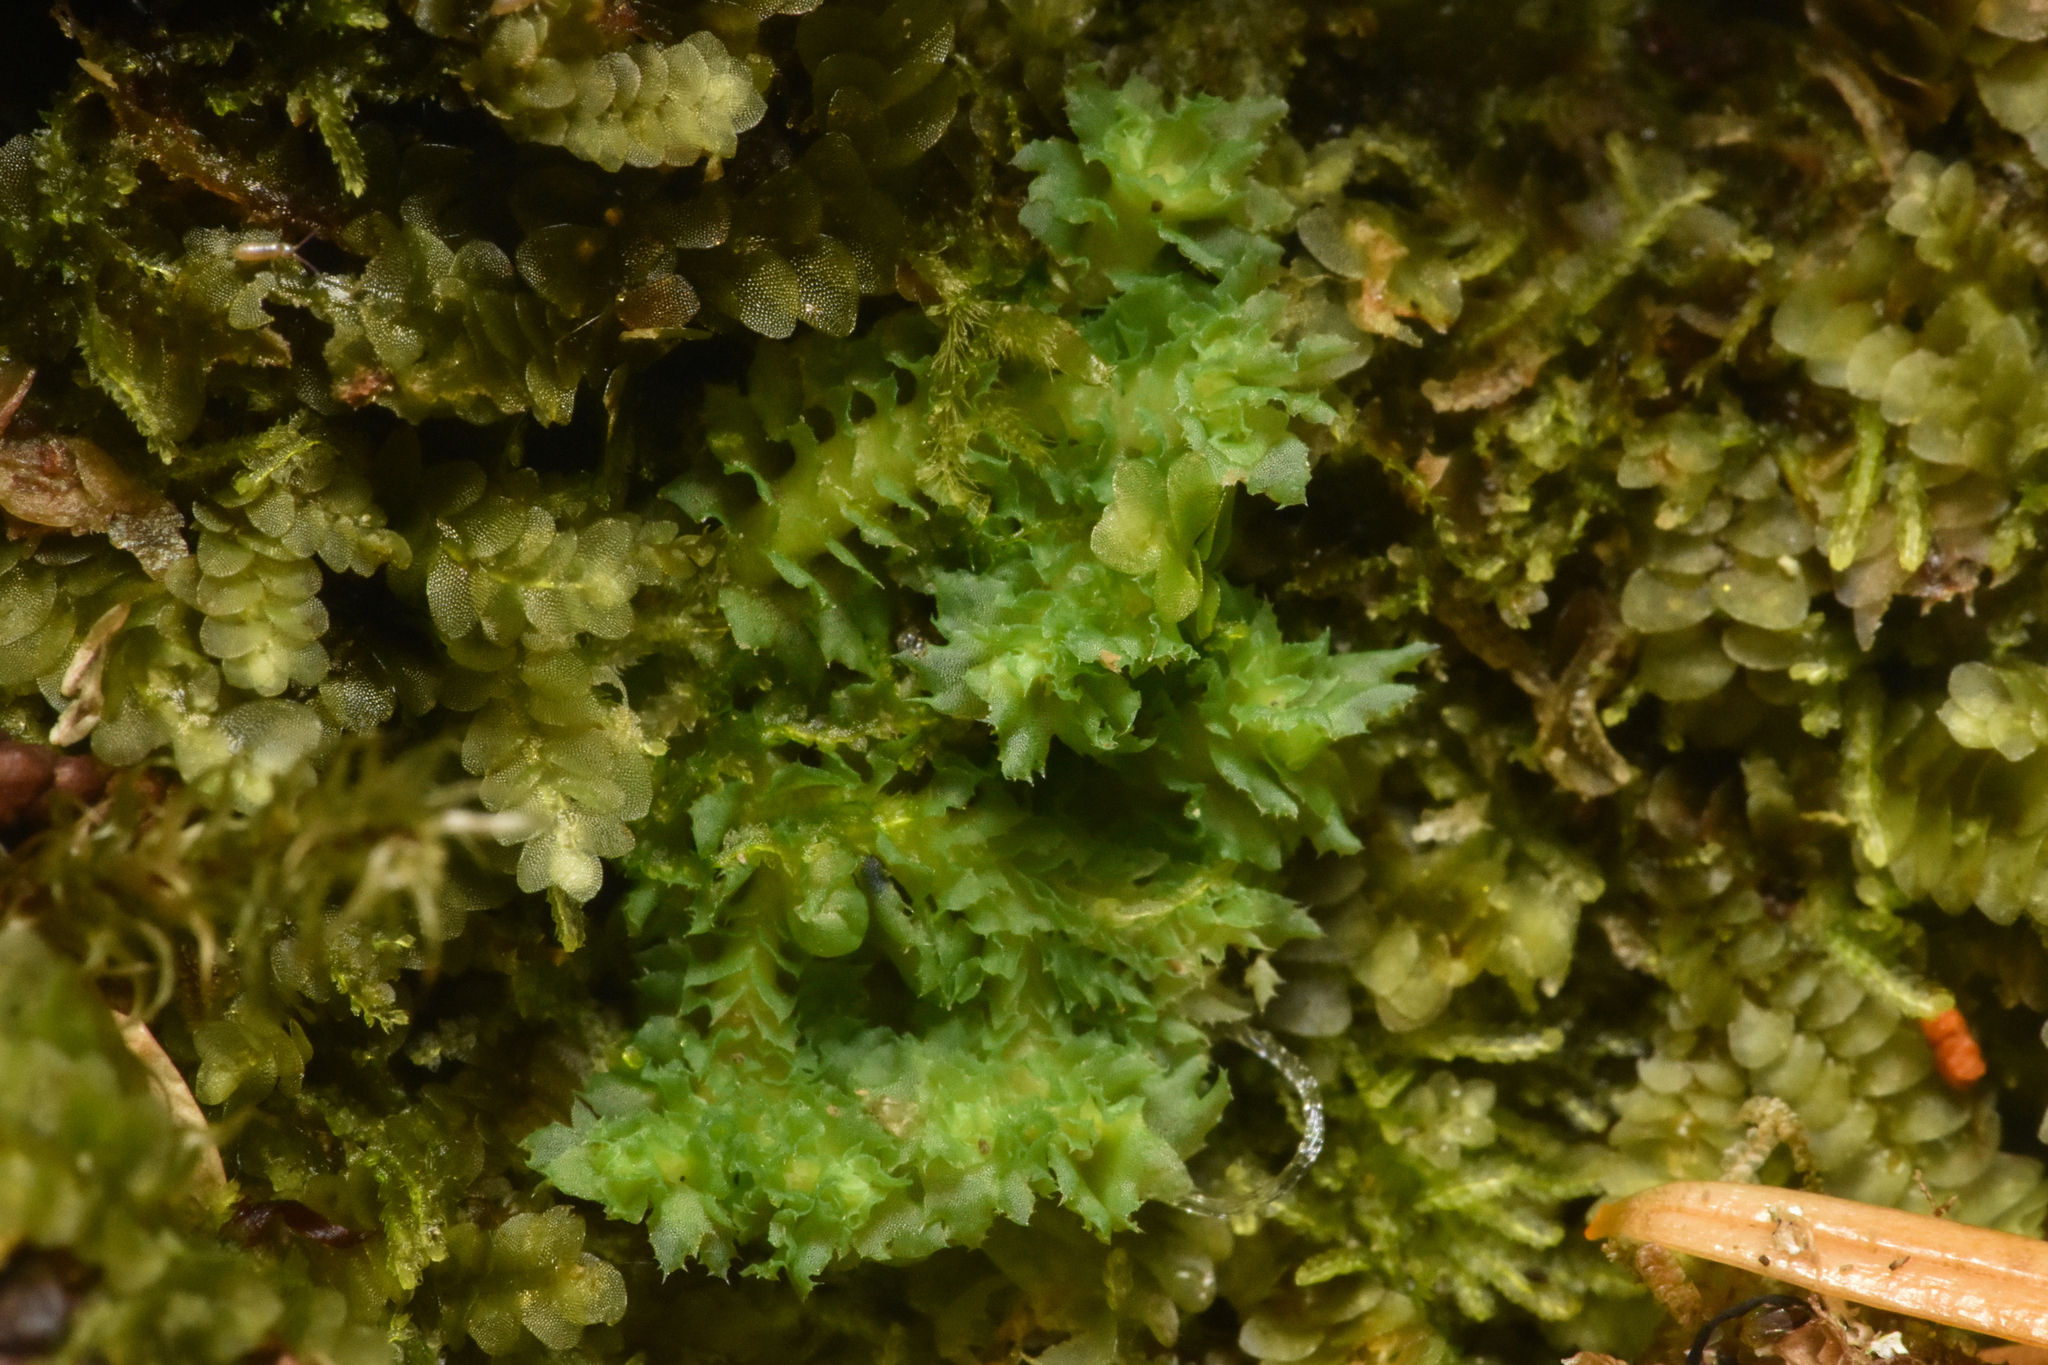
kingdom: Plantae
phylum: Marchantiophyta
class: Jungermanniopsida
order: Jungermanniales
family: Scapaniaceae
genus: Schistochilopsis
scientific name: Schistochilopsis incisa
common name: Jagged notchwort
